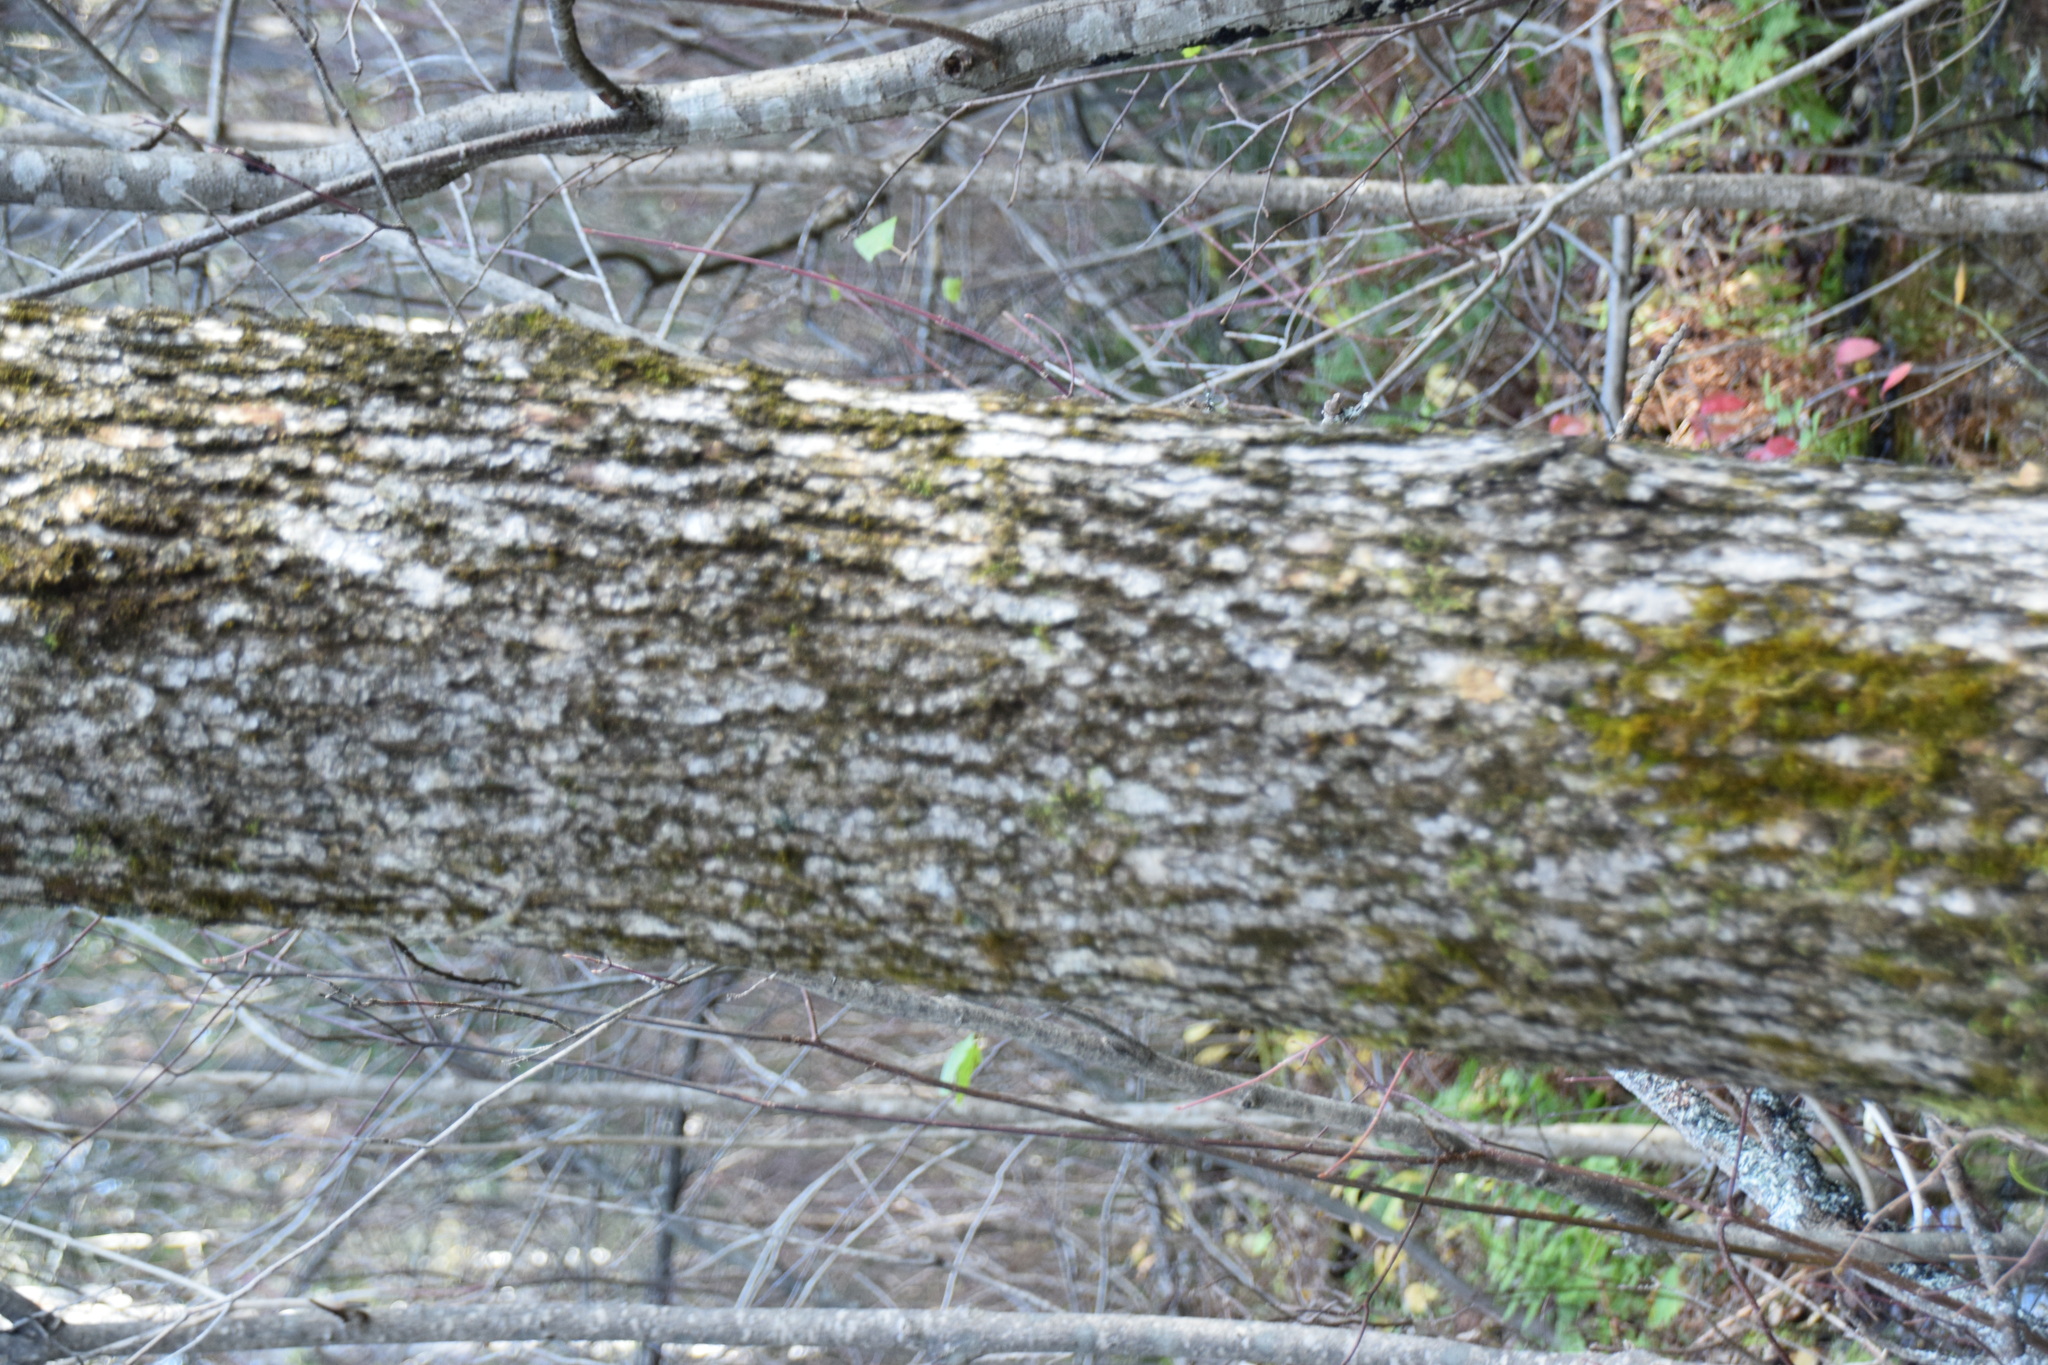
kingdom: Plantae
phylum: Tracheophyta
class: Magnoliopsida
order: Lamiales
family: Oleaceae
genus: Fraxinus
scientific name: Fraxinus nigra
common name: Black ash
